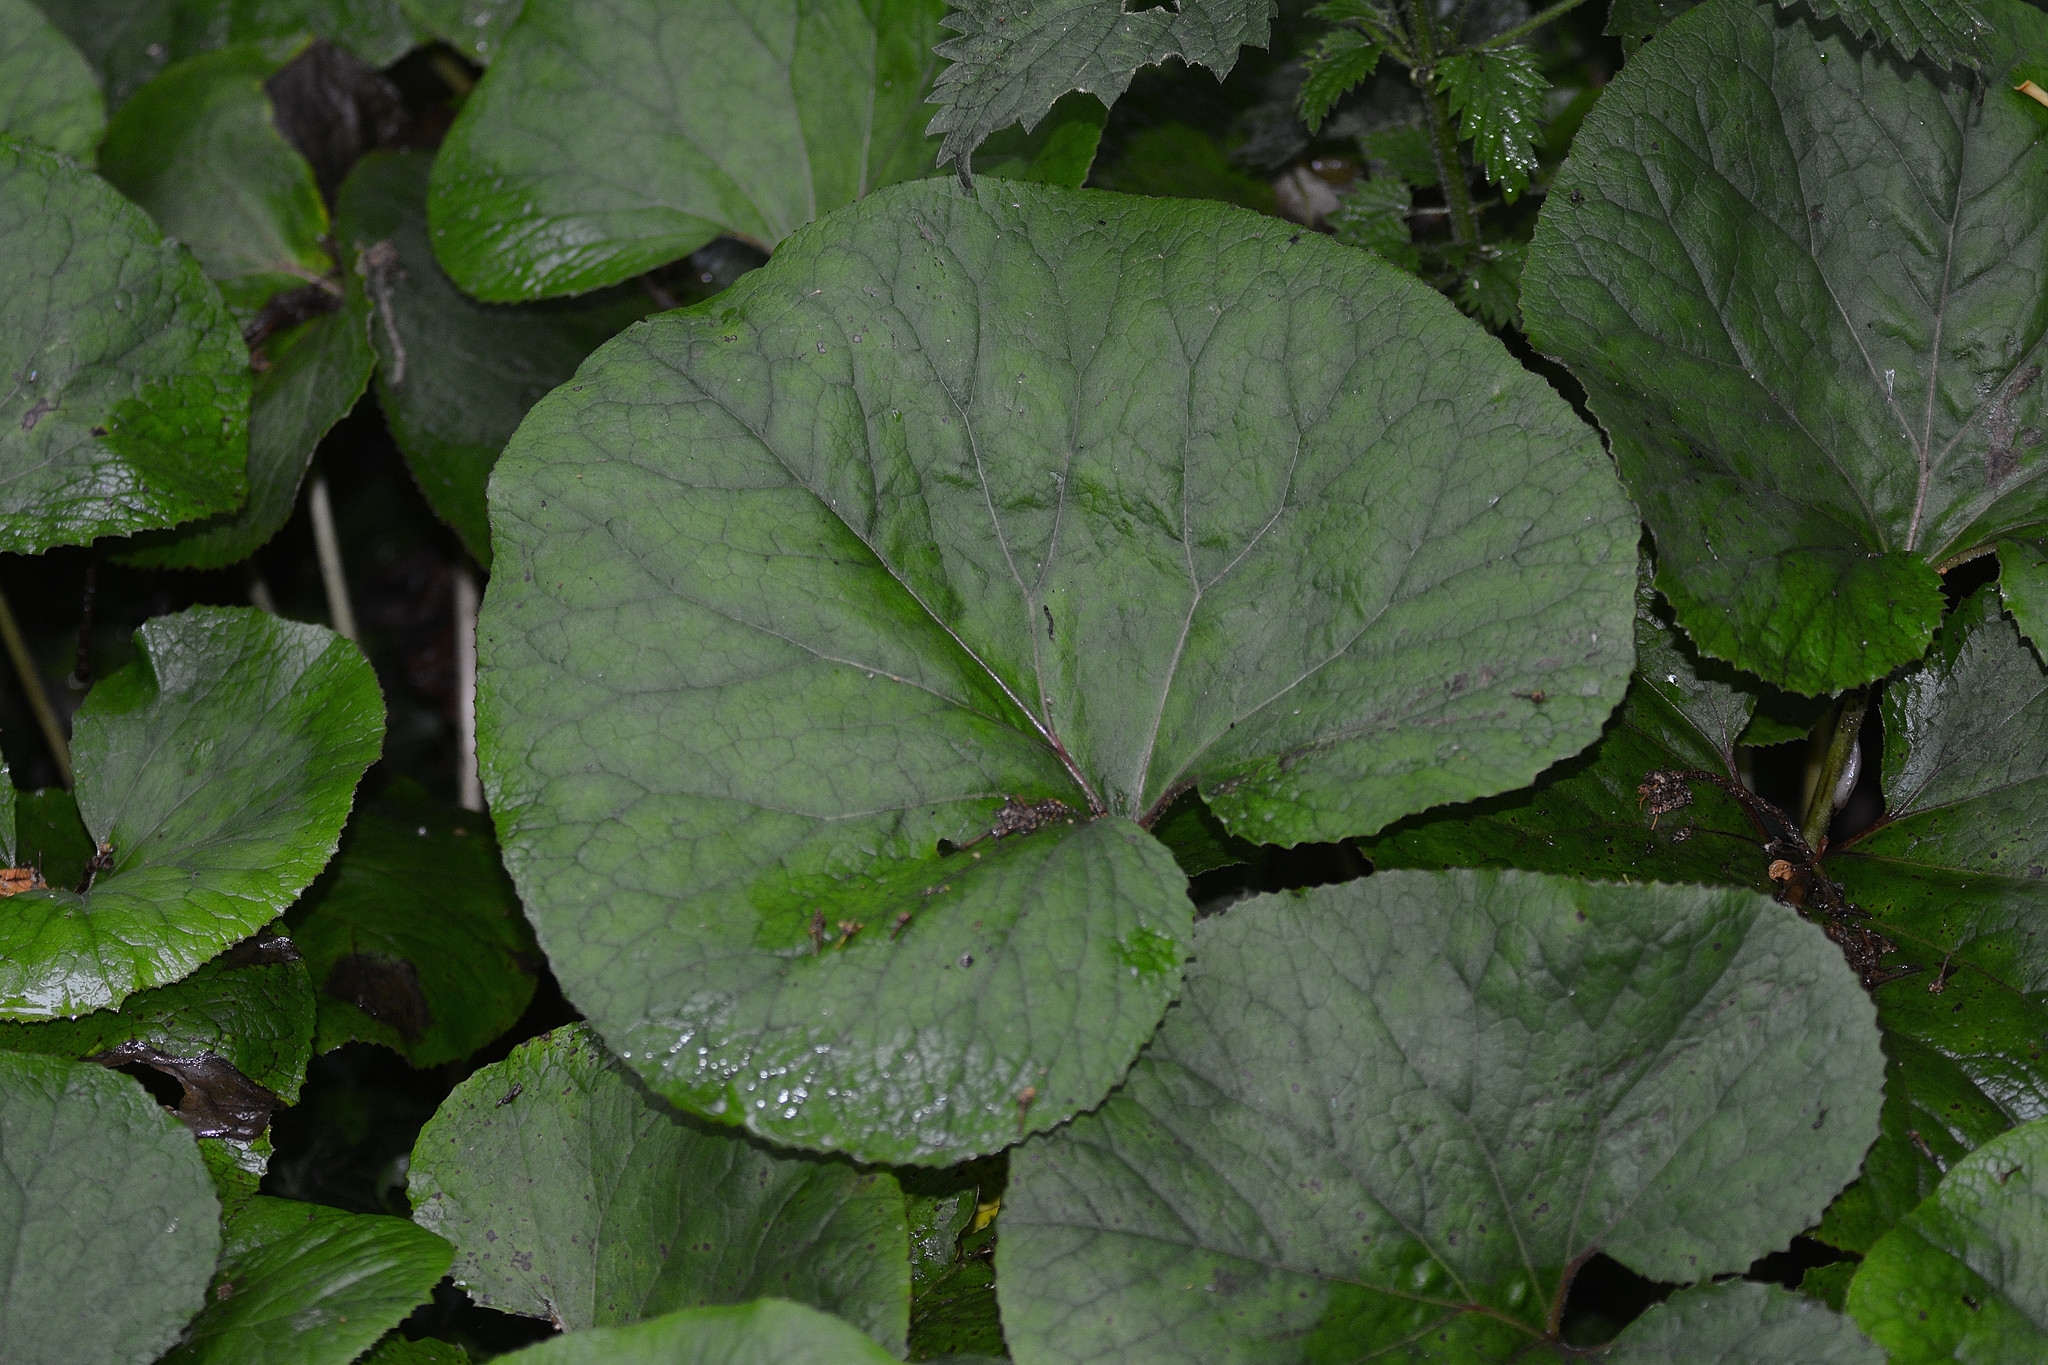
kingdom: Plantae
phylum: Tracheophyta
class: Magnoliopsida
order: Asterales
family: Asteraceae
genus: Petasites
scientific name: Petasites pyrenaicus
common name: Winter heliotrope
